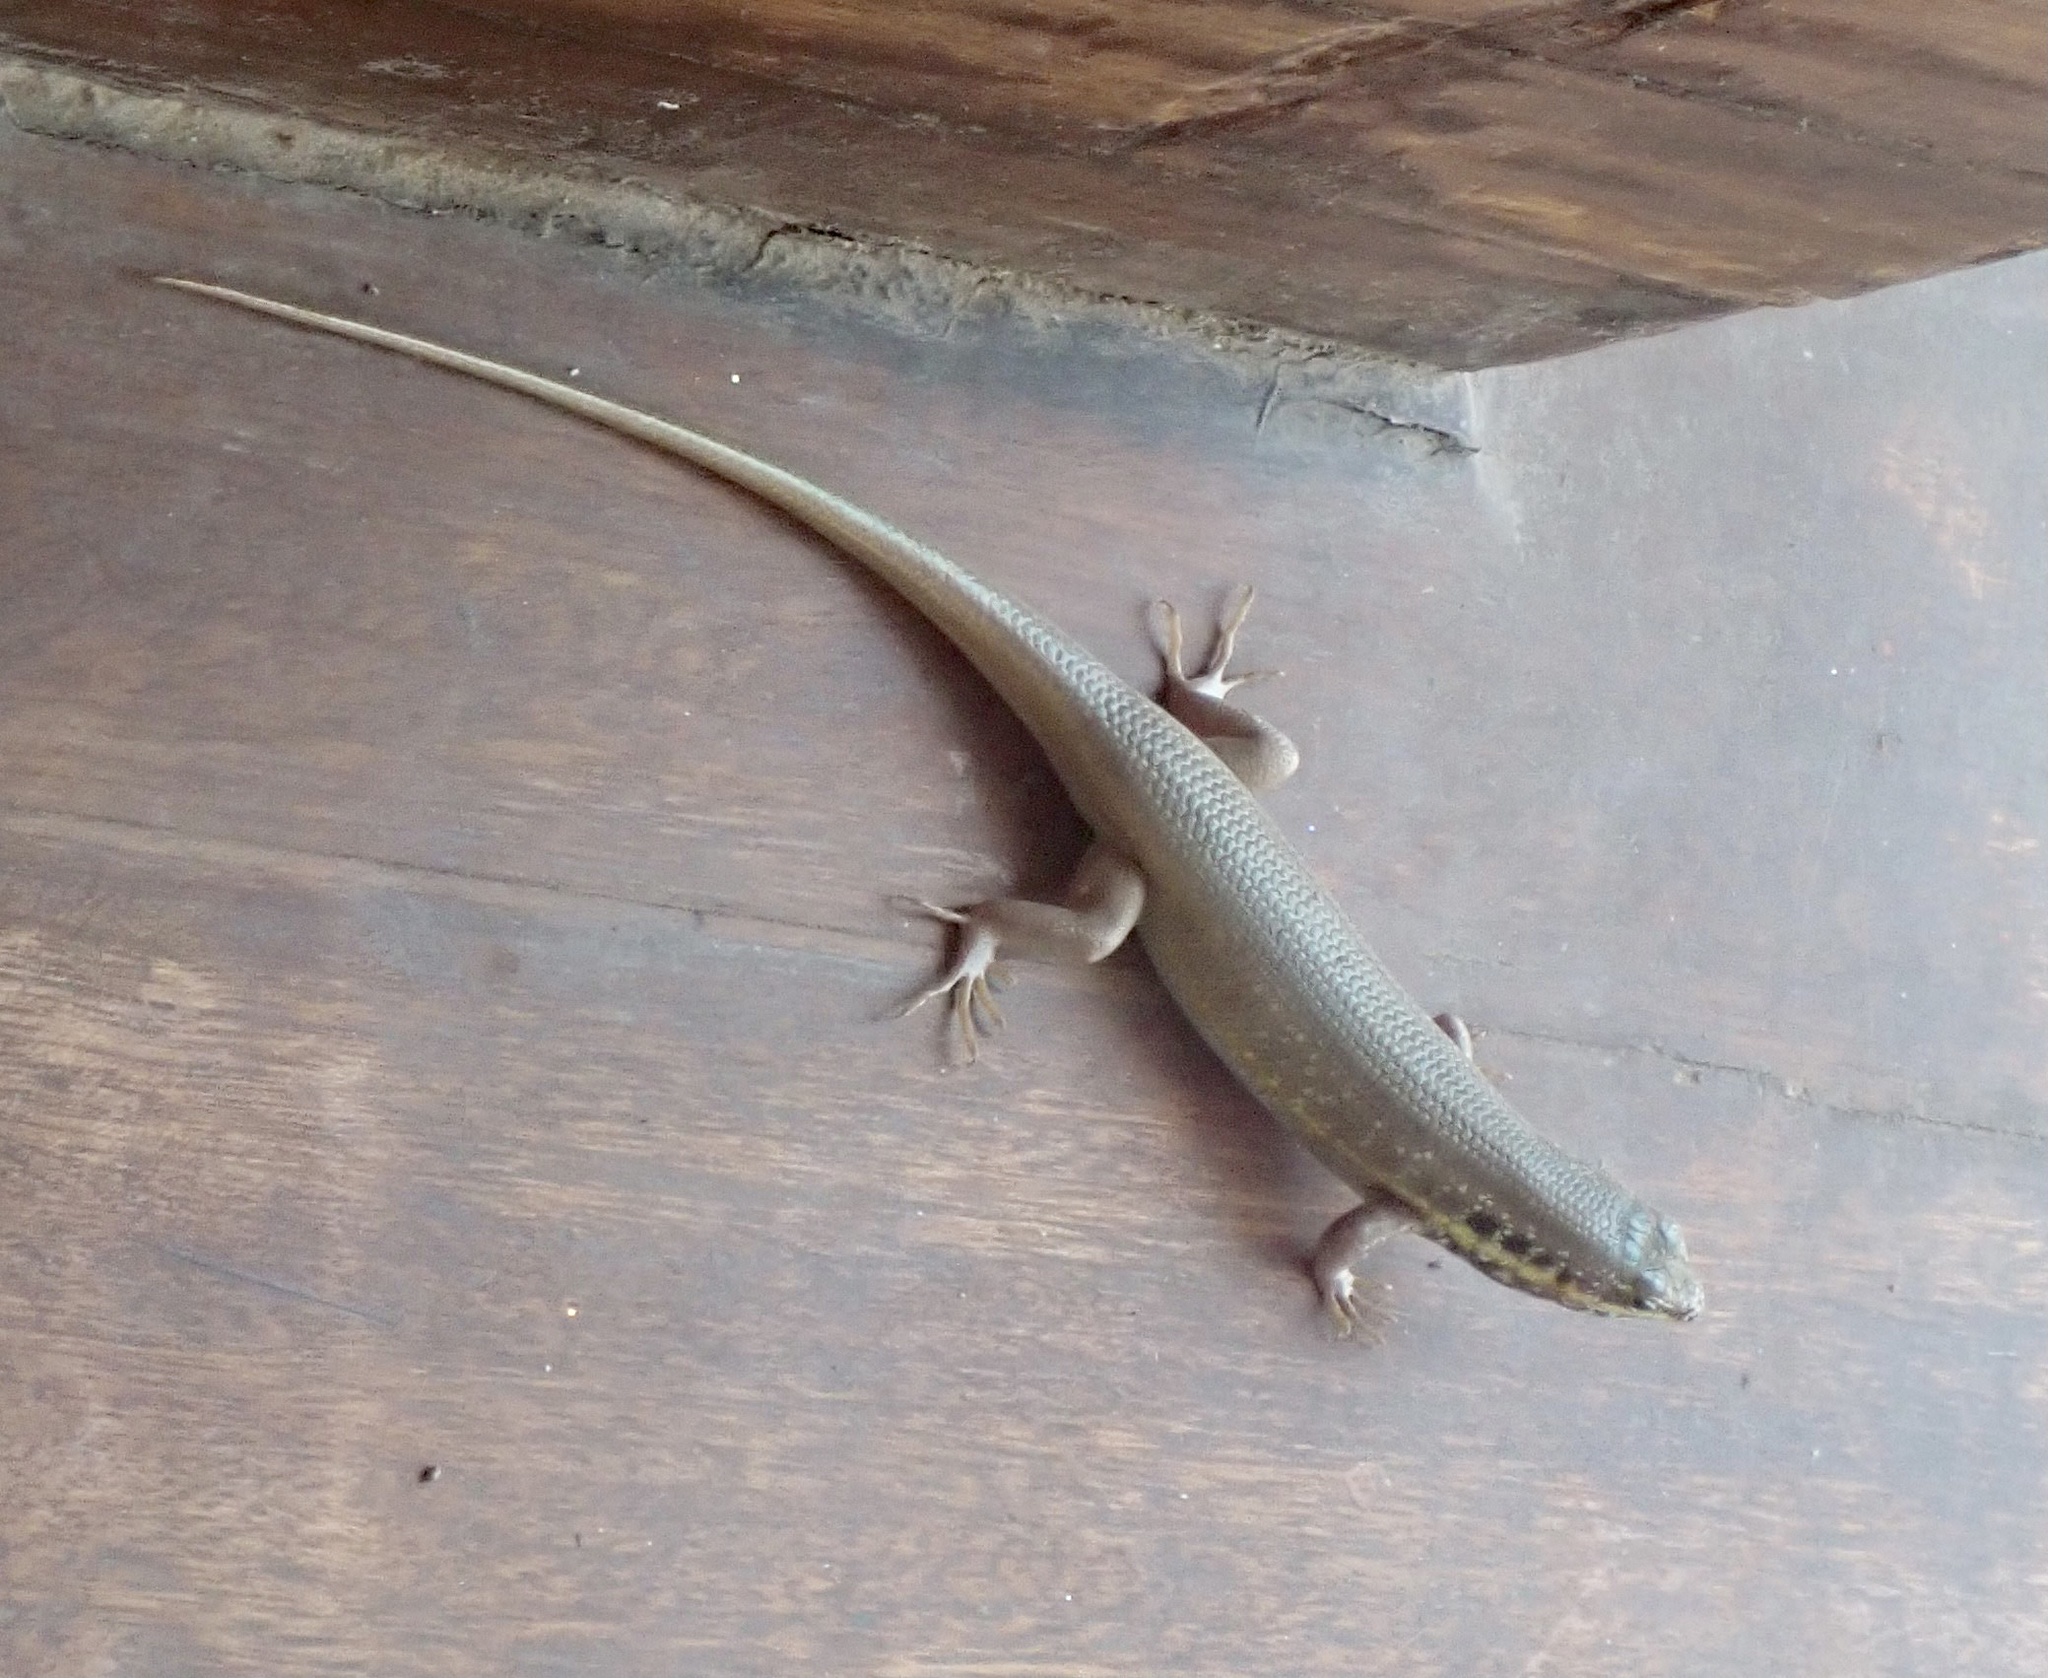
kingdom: Animalia
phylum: Chordata
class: Squamata
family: Scincidae
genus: Trachylepis
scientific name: Trachylepis quinquetaeniata
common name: African five-lined skink
